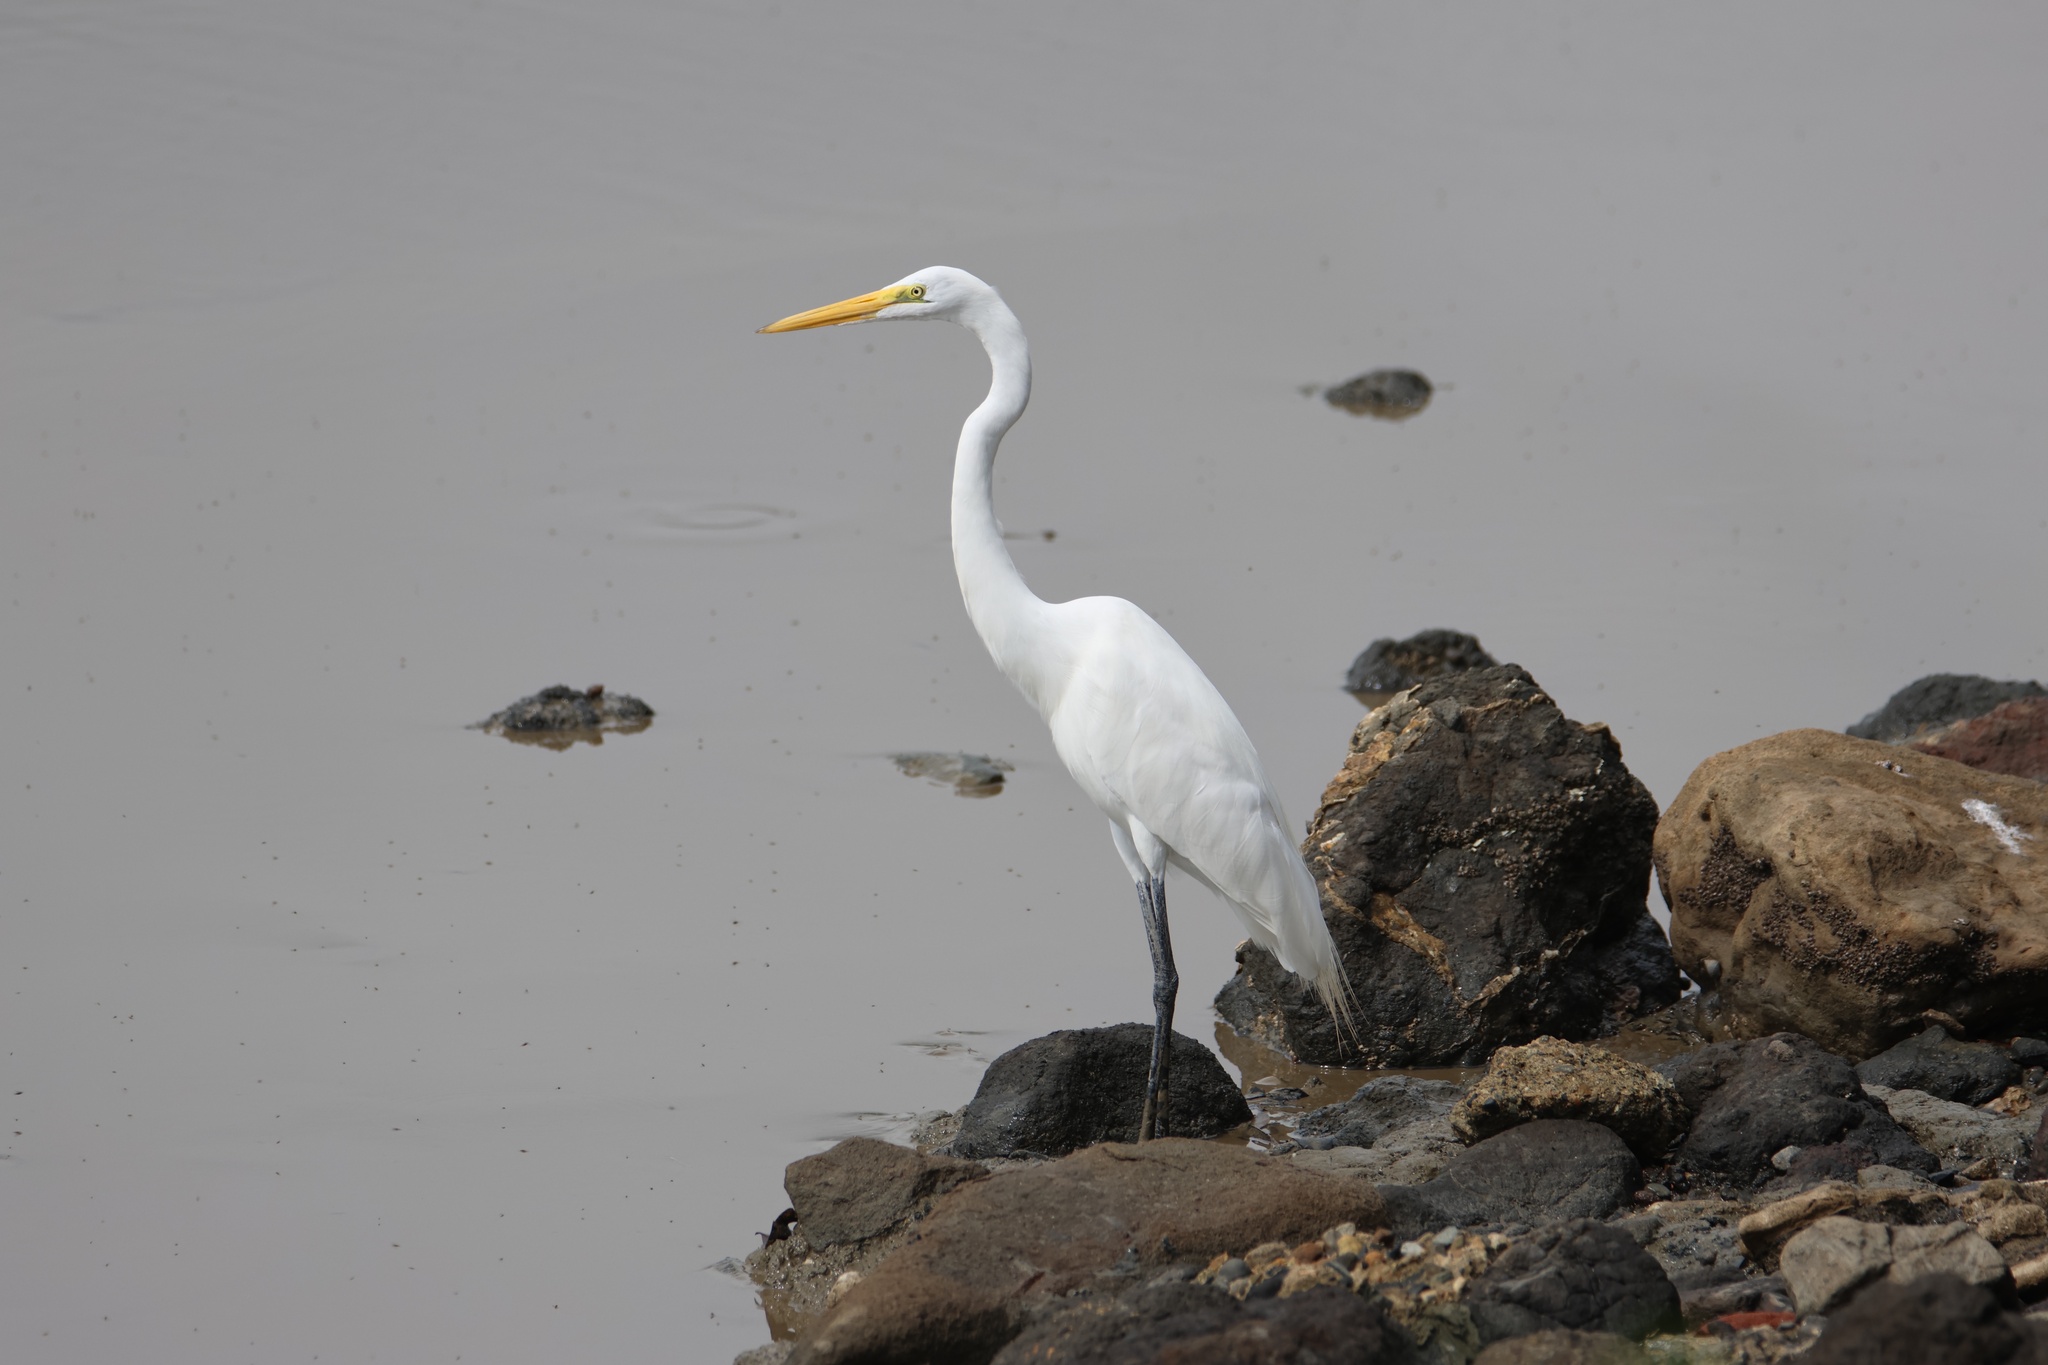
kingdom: Animalia
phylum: Chordata
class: Aves
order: Pelecaniformes
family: Ardeidae
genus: Ardea
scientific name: Ardea alba
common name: Great egret
